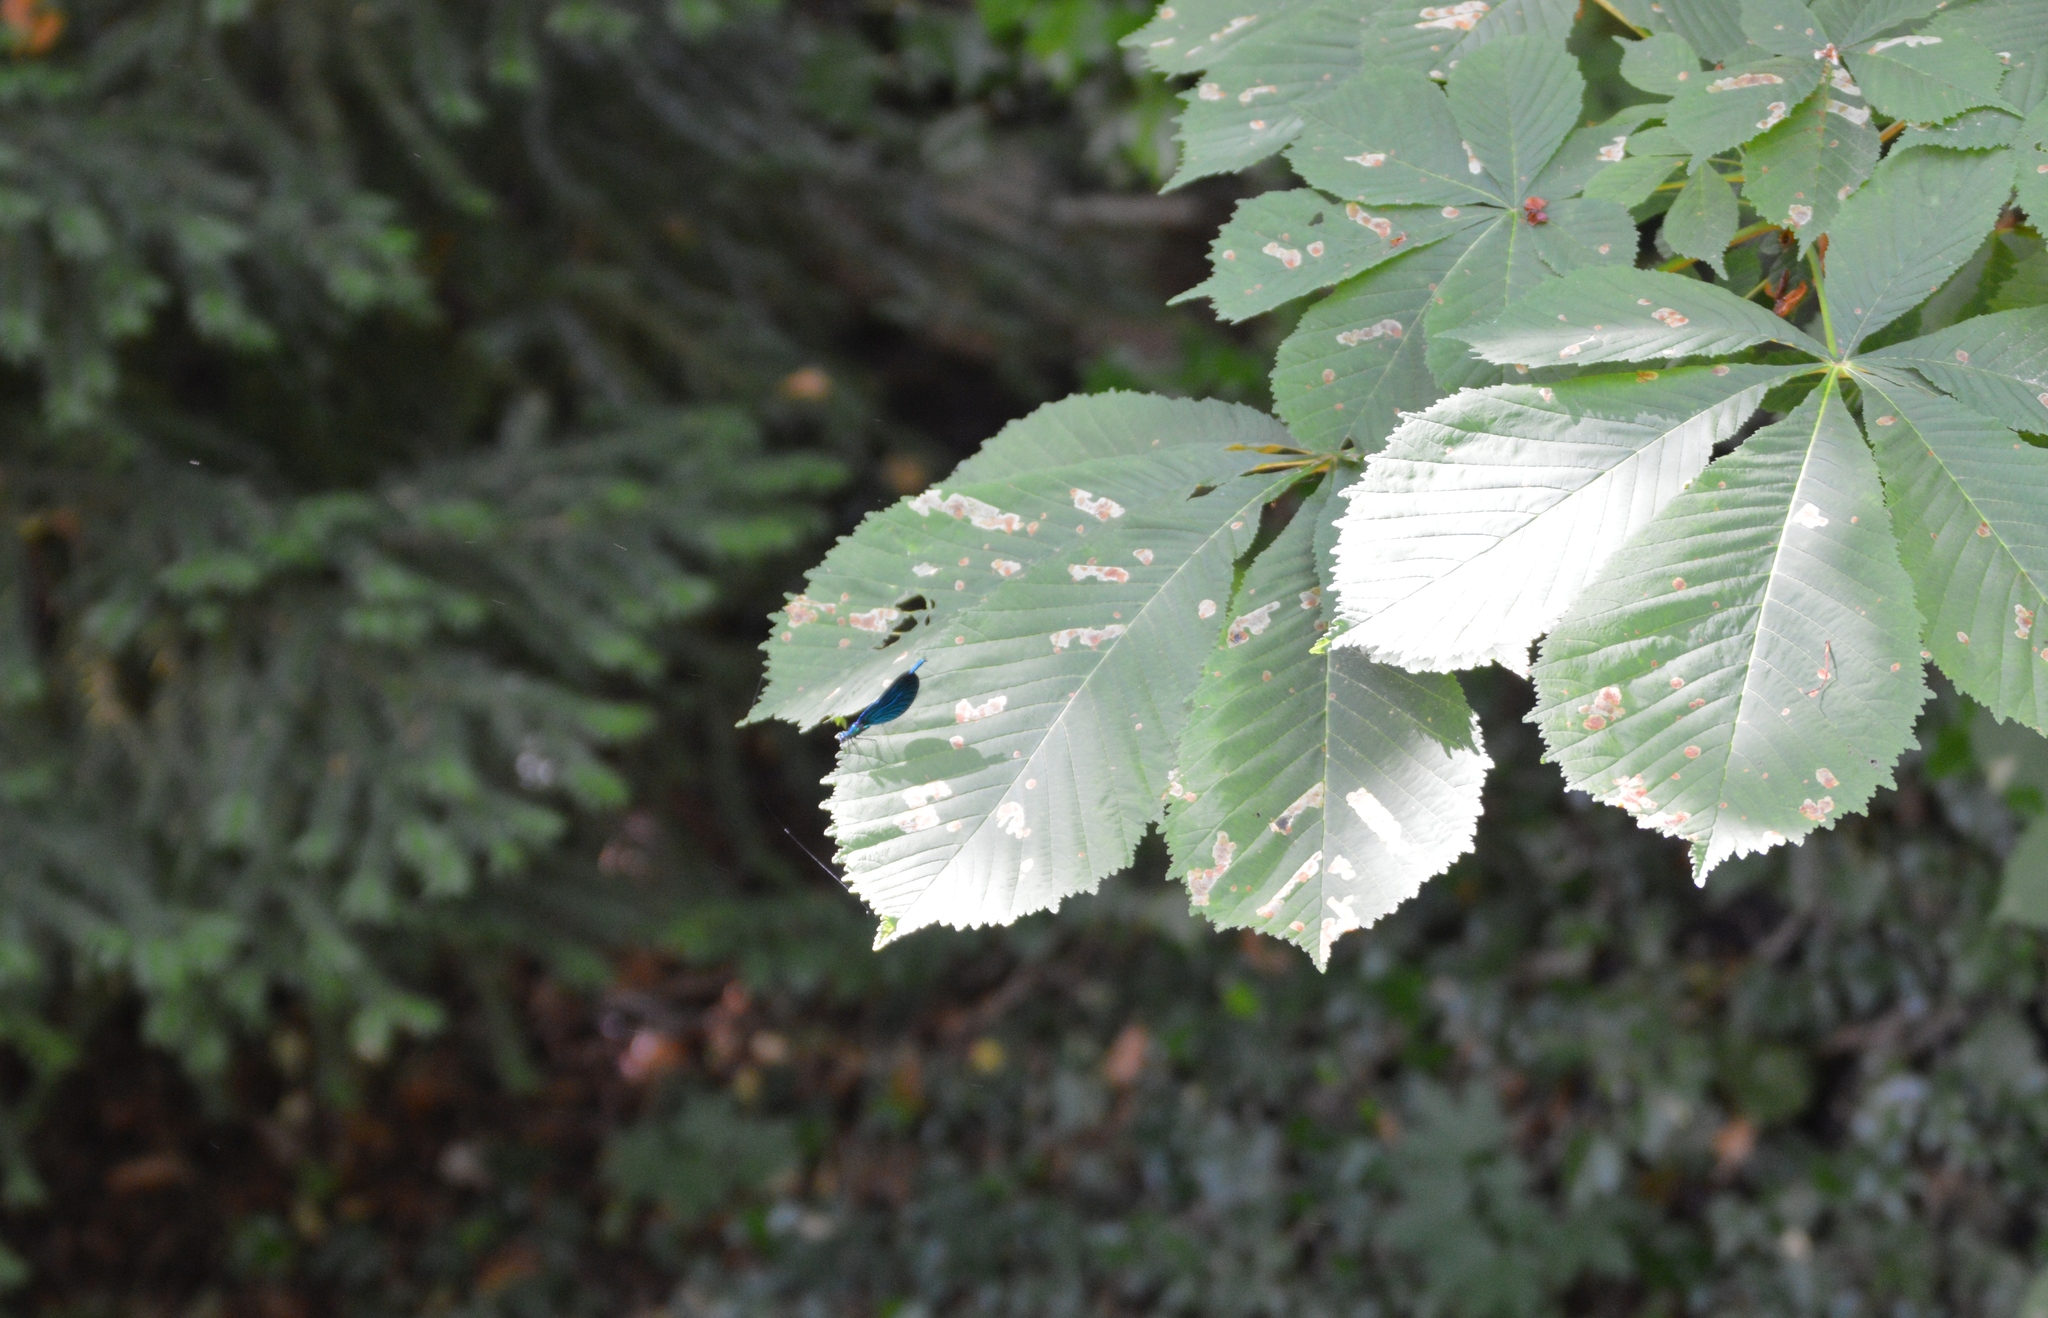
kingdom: Animalia
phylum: Arthropoda
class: Insecta
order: Odonata
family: Calopterygidae
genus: Calopteryx
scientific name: Calopteryx virgo
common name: Beautiful demoiselle
